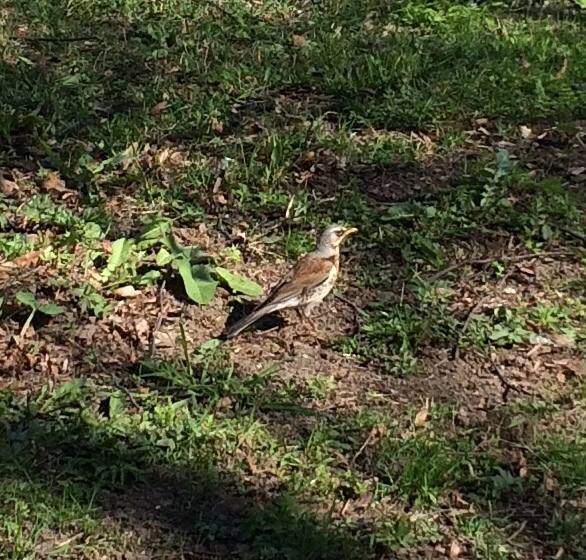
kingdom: Animalia
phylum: Chordata
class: Aves
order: Passeriformes
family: Turdidae
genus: Turdus
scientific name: Turdus pilaris
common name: Fieldfare
